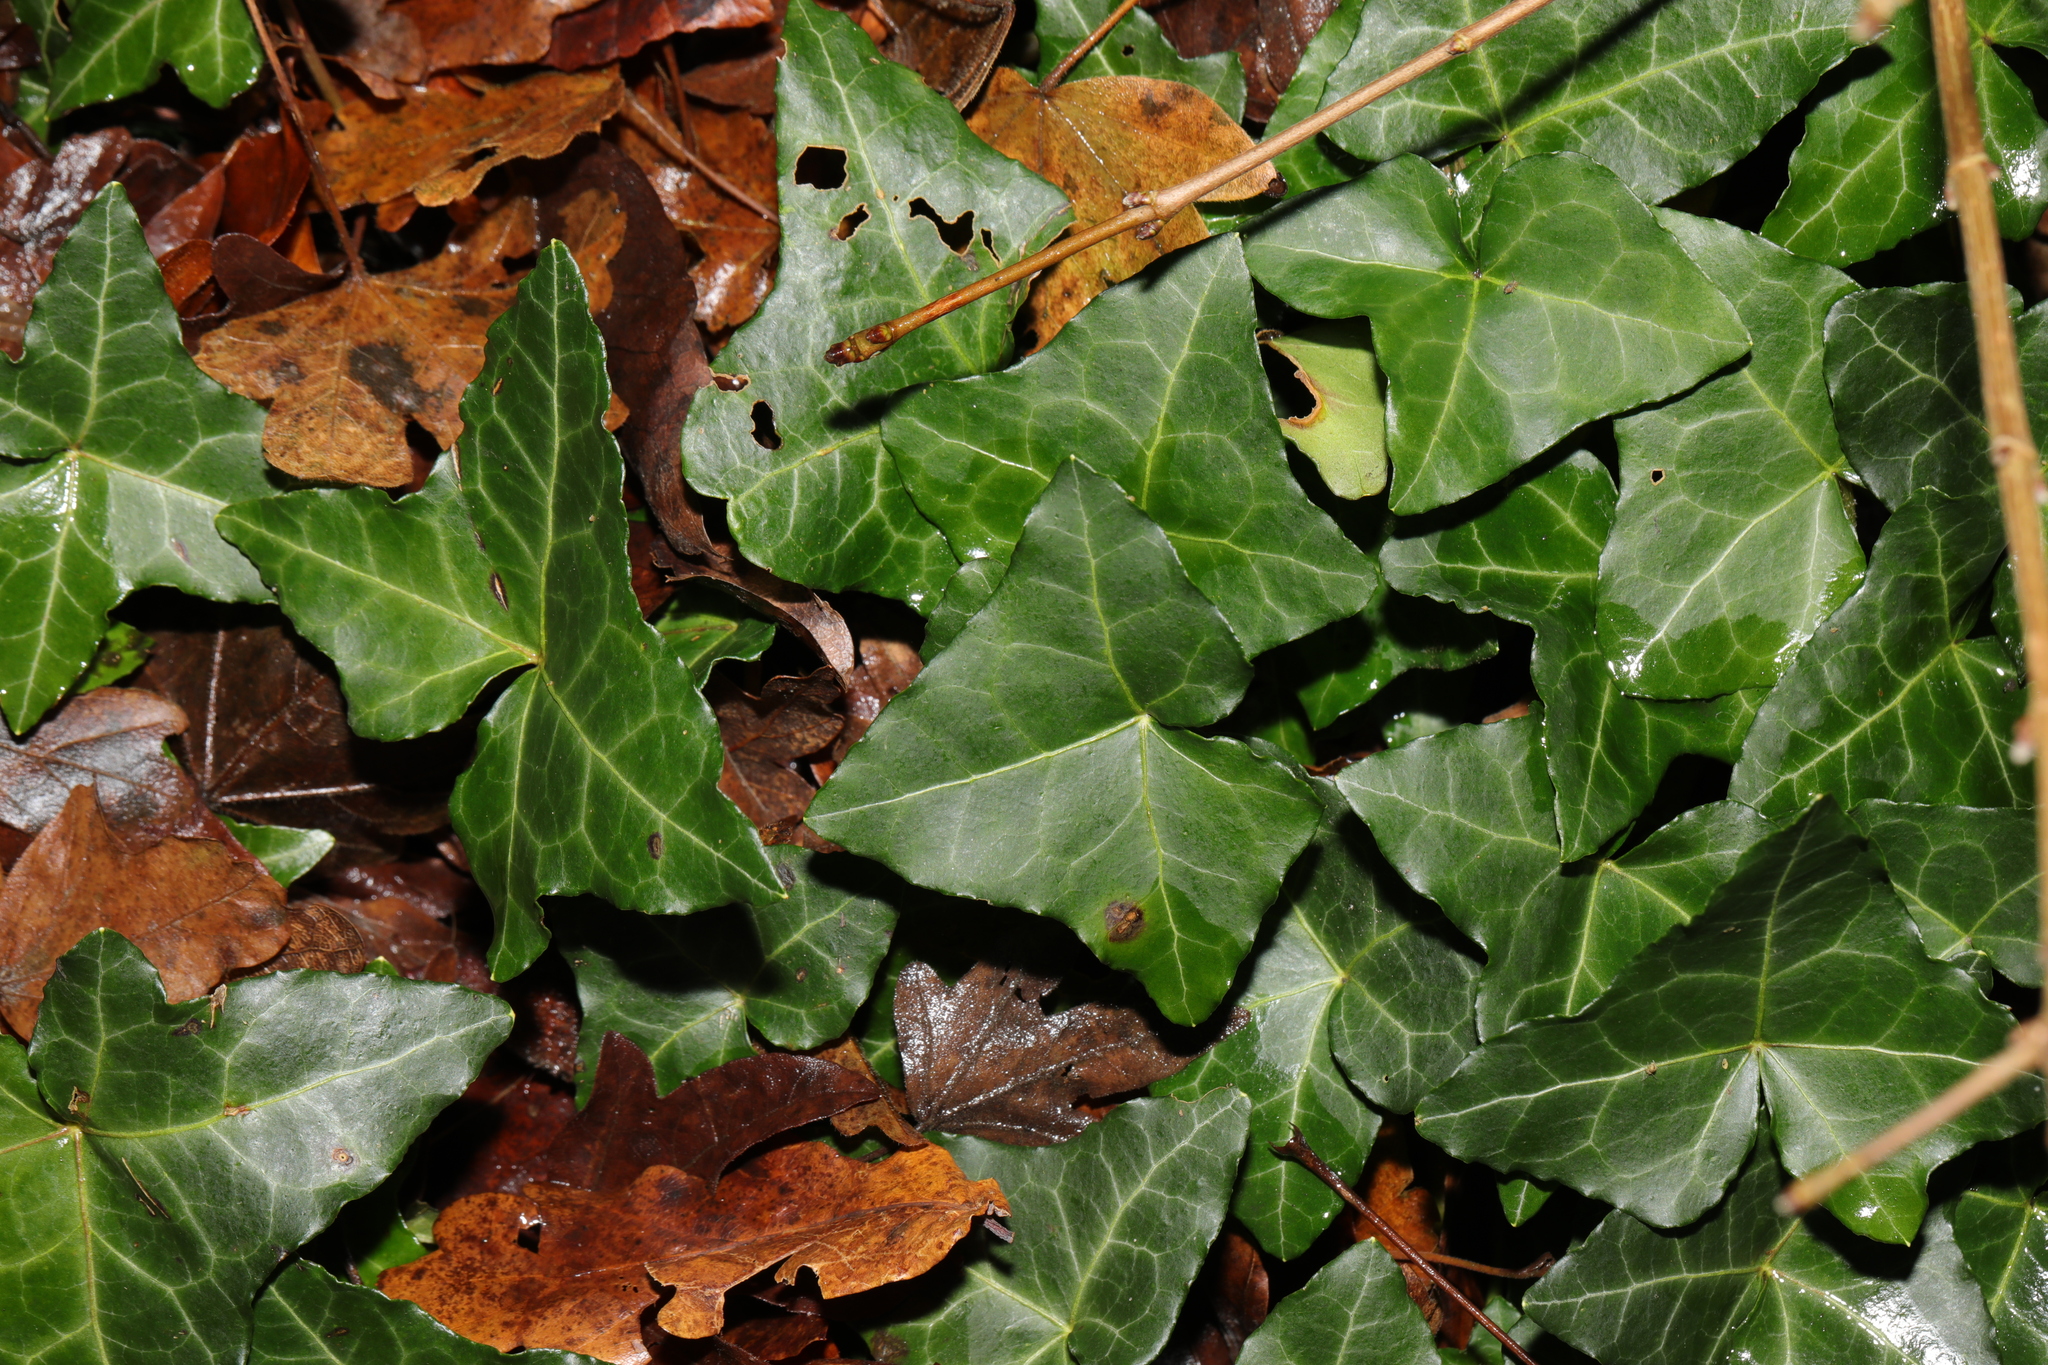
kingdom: Plantae
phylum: Tracheophyta
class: Magnoliopsida
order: Apiales
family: Araliaceae
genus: Hedera
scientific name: Hedera helix
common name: Ivy
